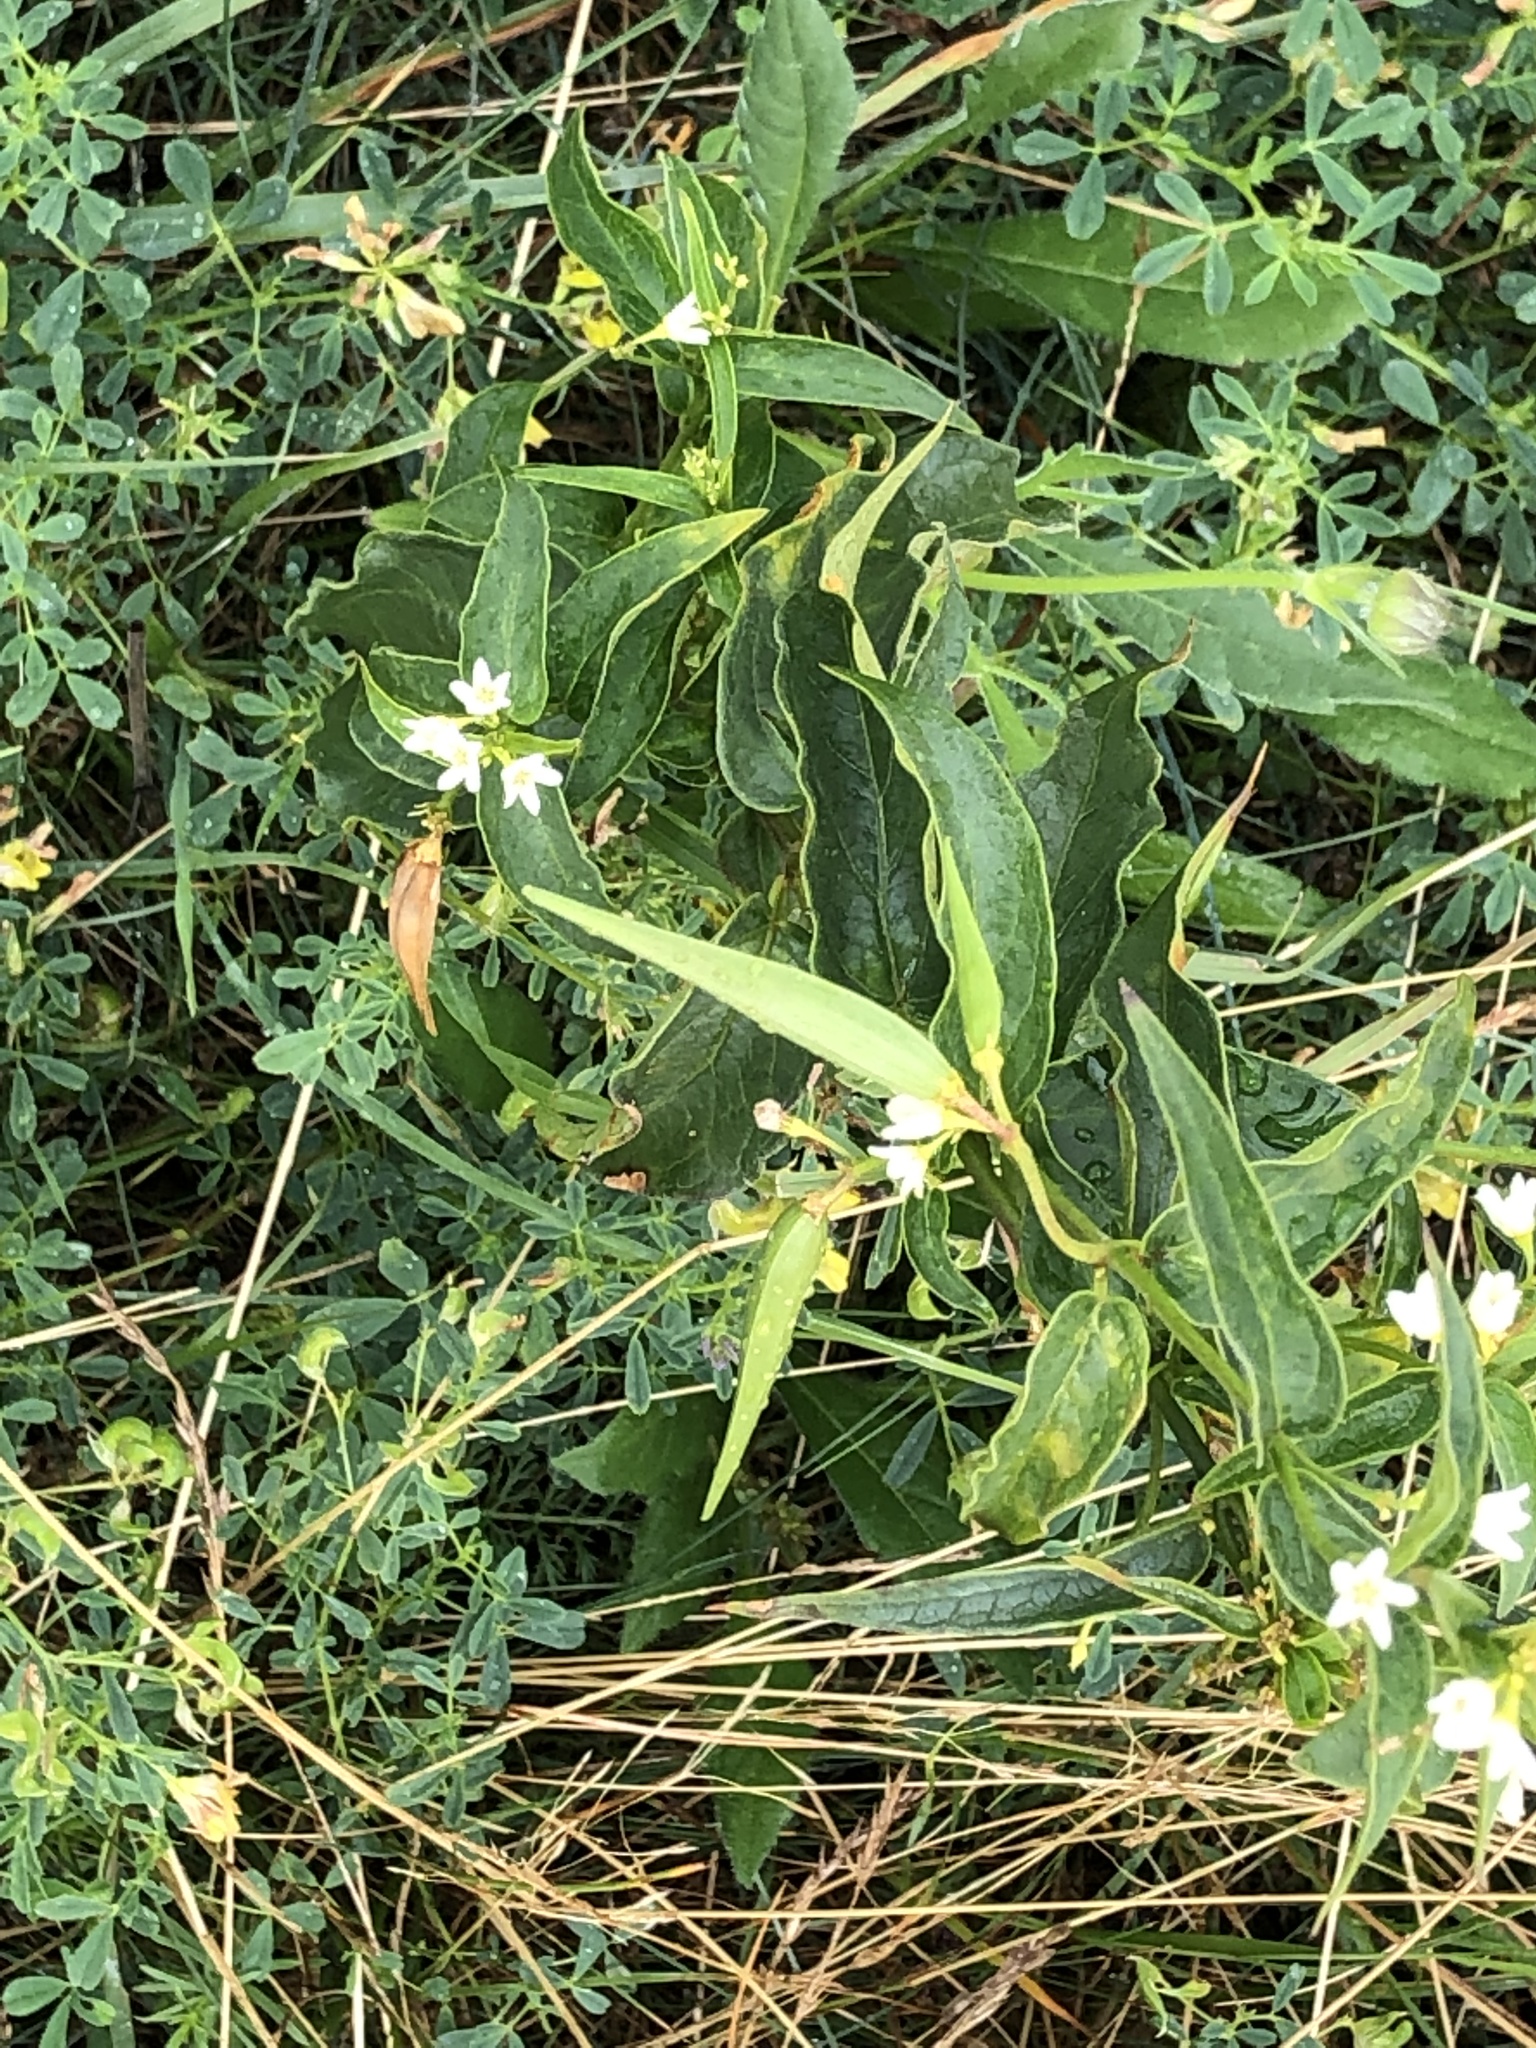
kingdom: Plantae
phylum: Tracheophyta
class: Magnoliopsida
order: Gentianales
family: Apocynaceae
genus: Vincetoxicum
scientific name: Vincetoxicum hirundinaria
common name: White swallowwort
